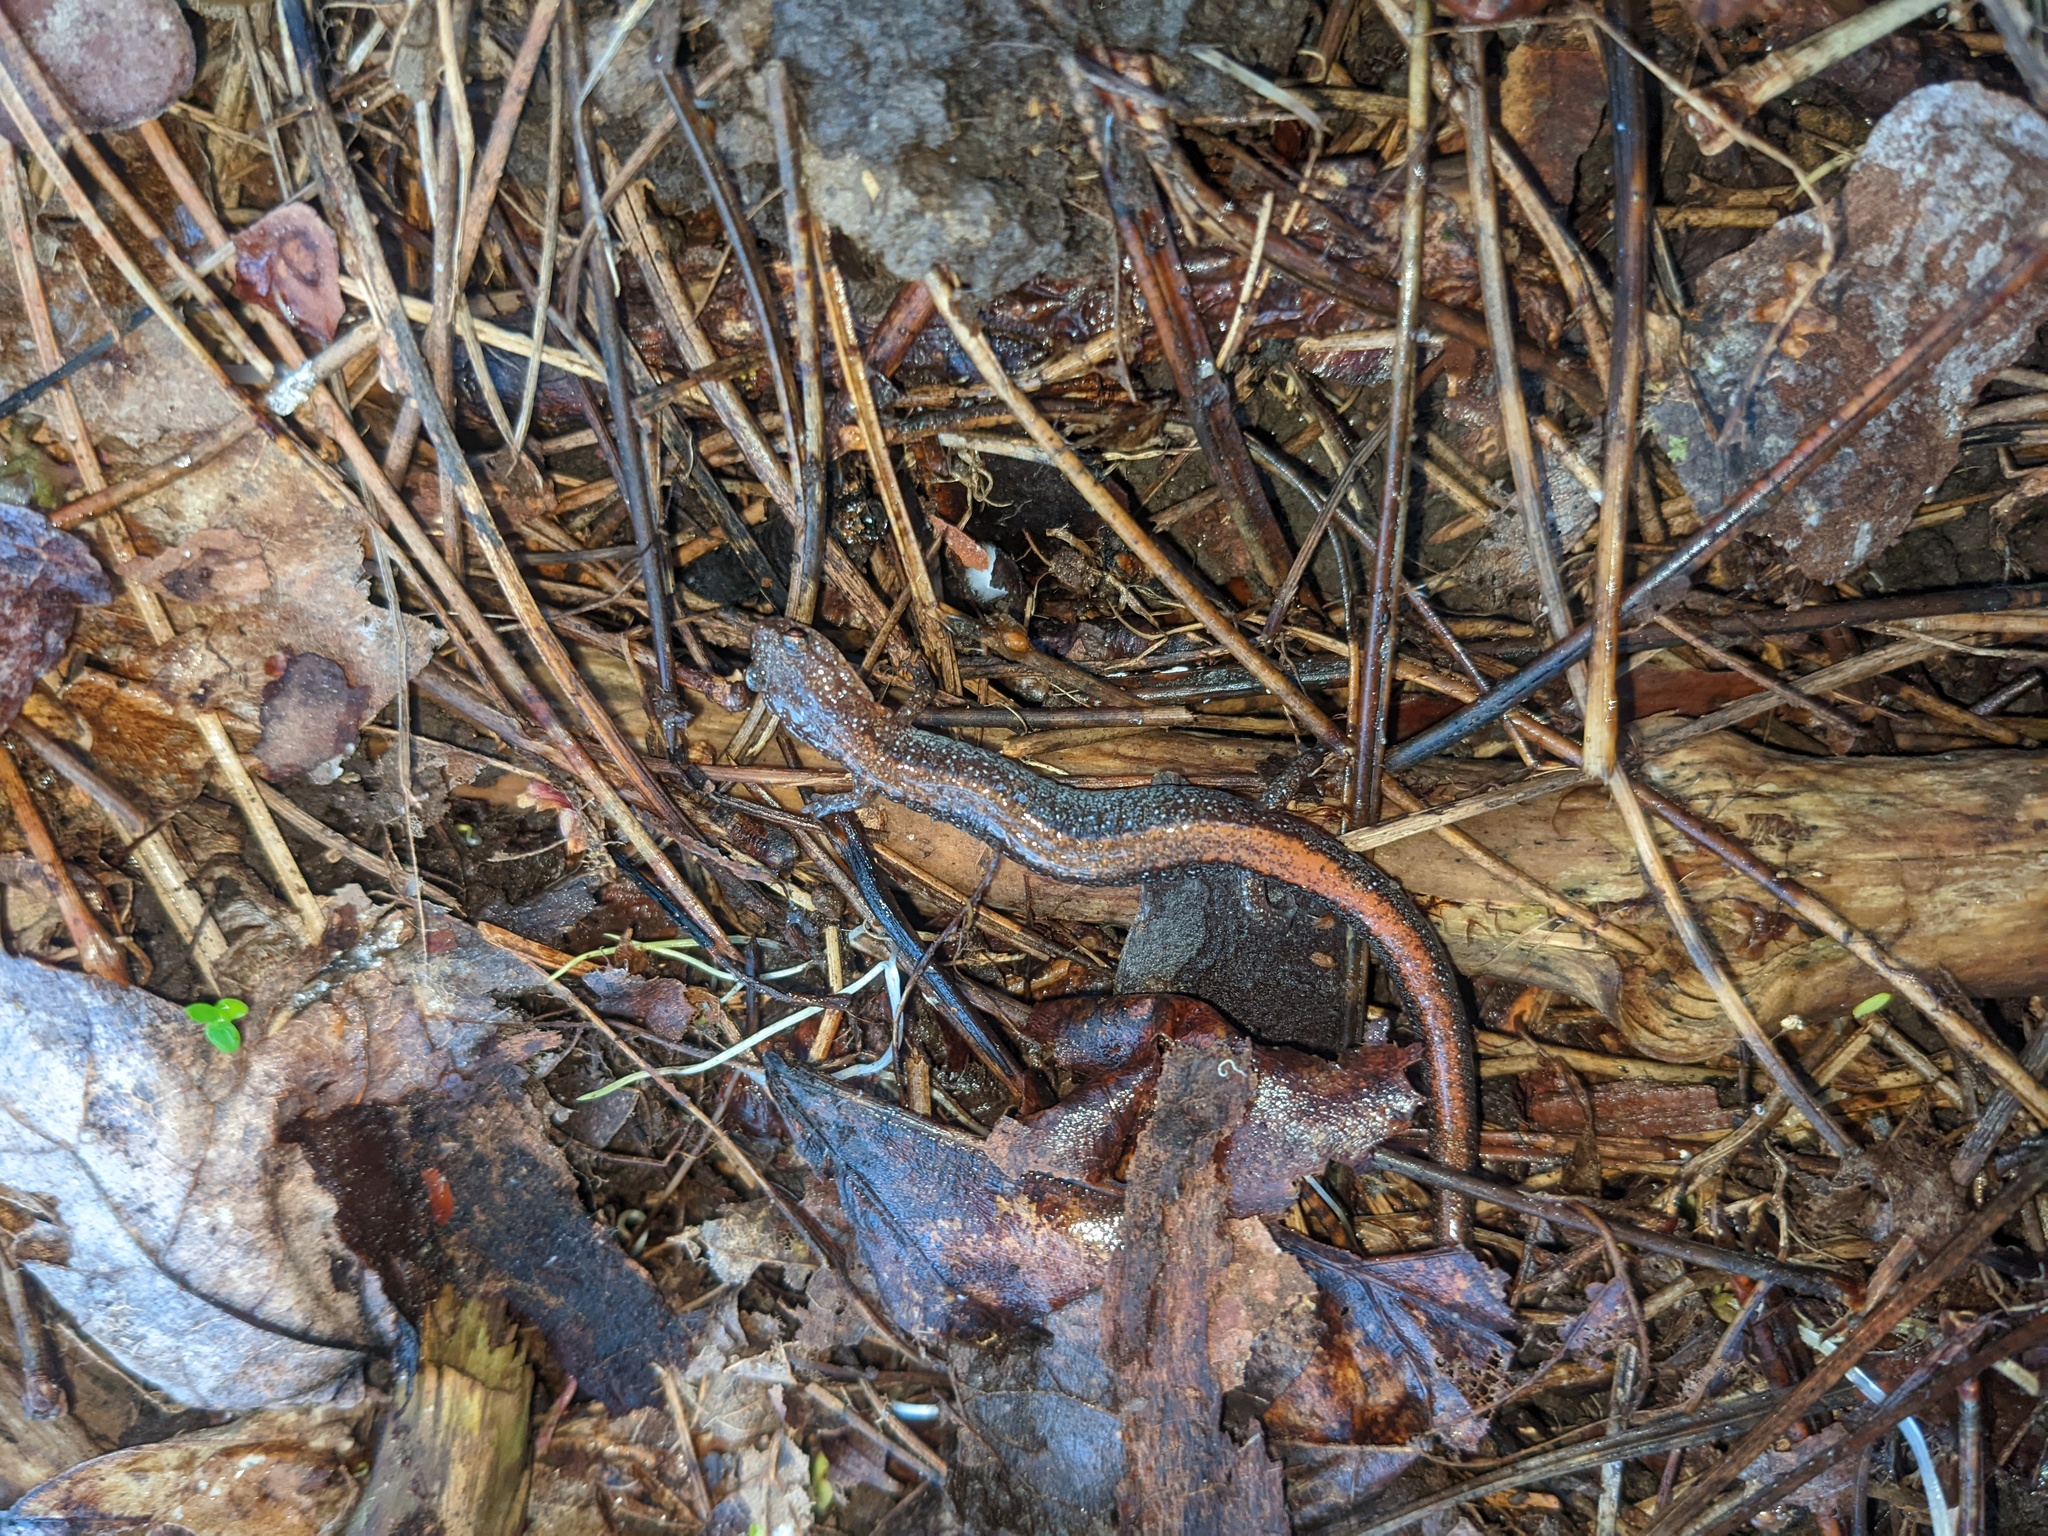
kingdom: Animalia
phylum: Chordata
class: Amphibia
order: Caudata
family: Plethodontidae
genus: Plethodon
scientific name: Plethodon cinereus
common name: Redback salamander
